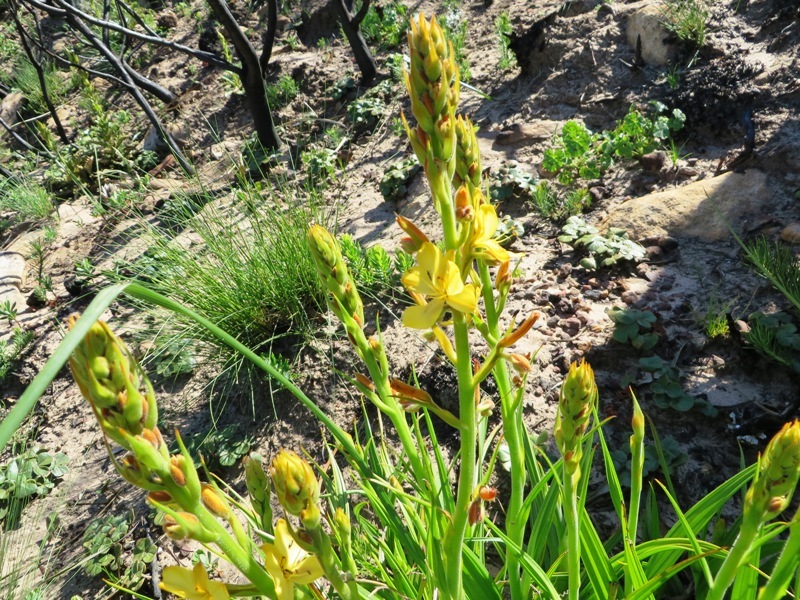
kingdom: Plantae
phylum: Tracheophyta
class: Liliopsida
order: Commelinales
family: Haemodoraceae
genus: Wachendorfia
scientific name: Wachendorfia paniculata
